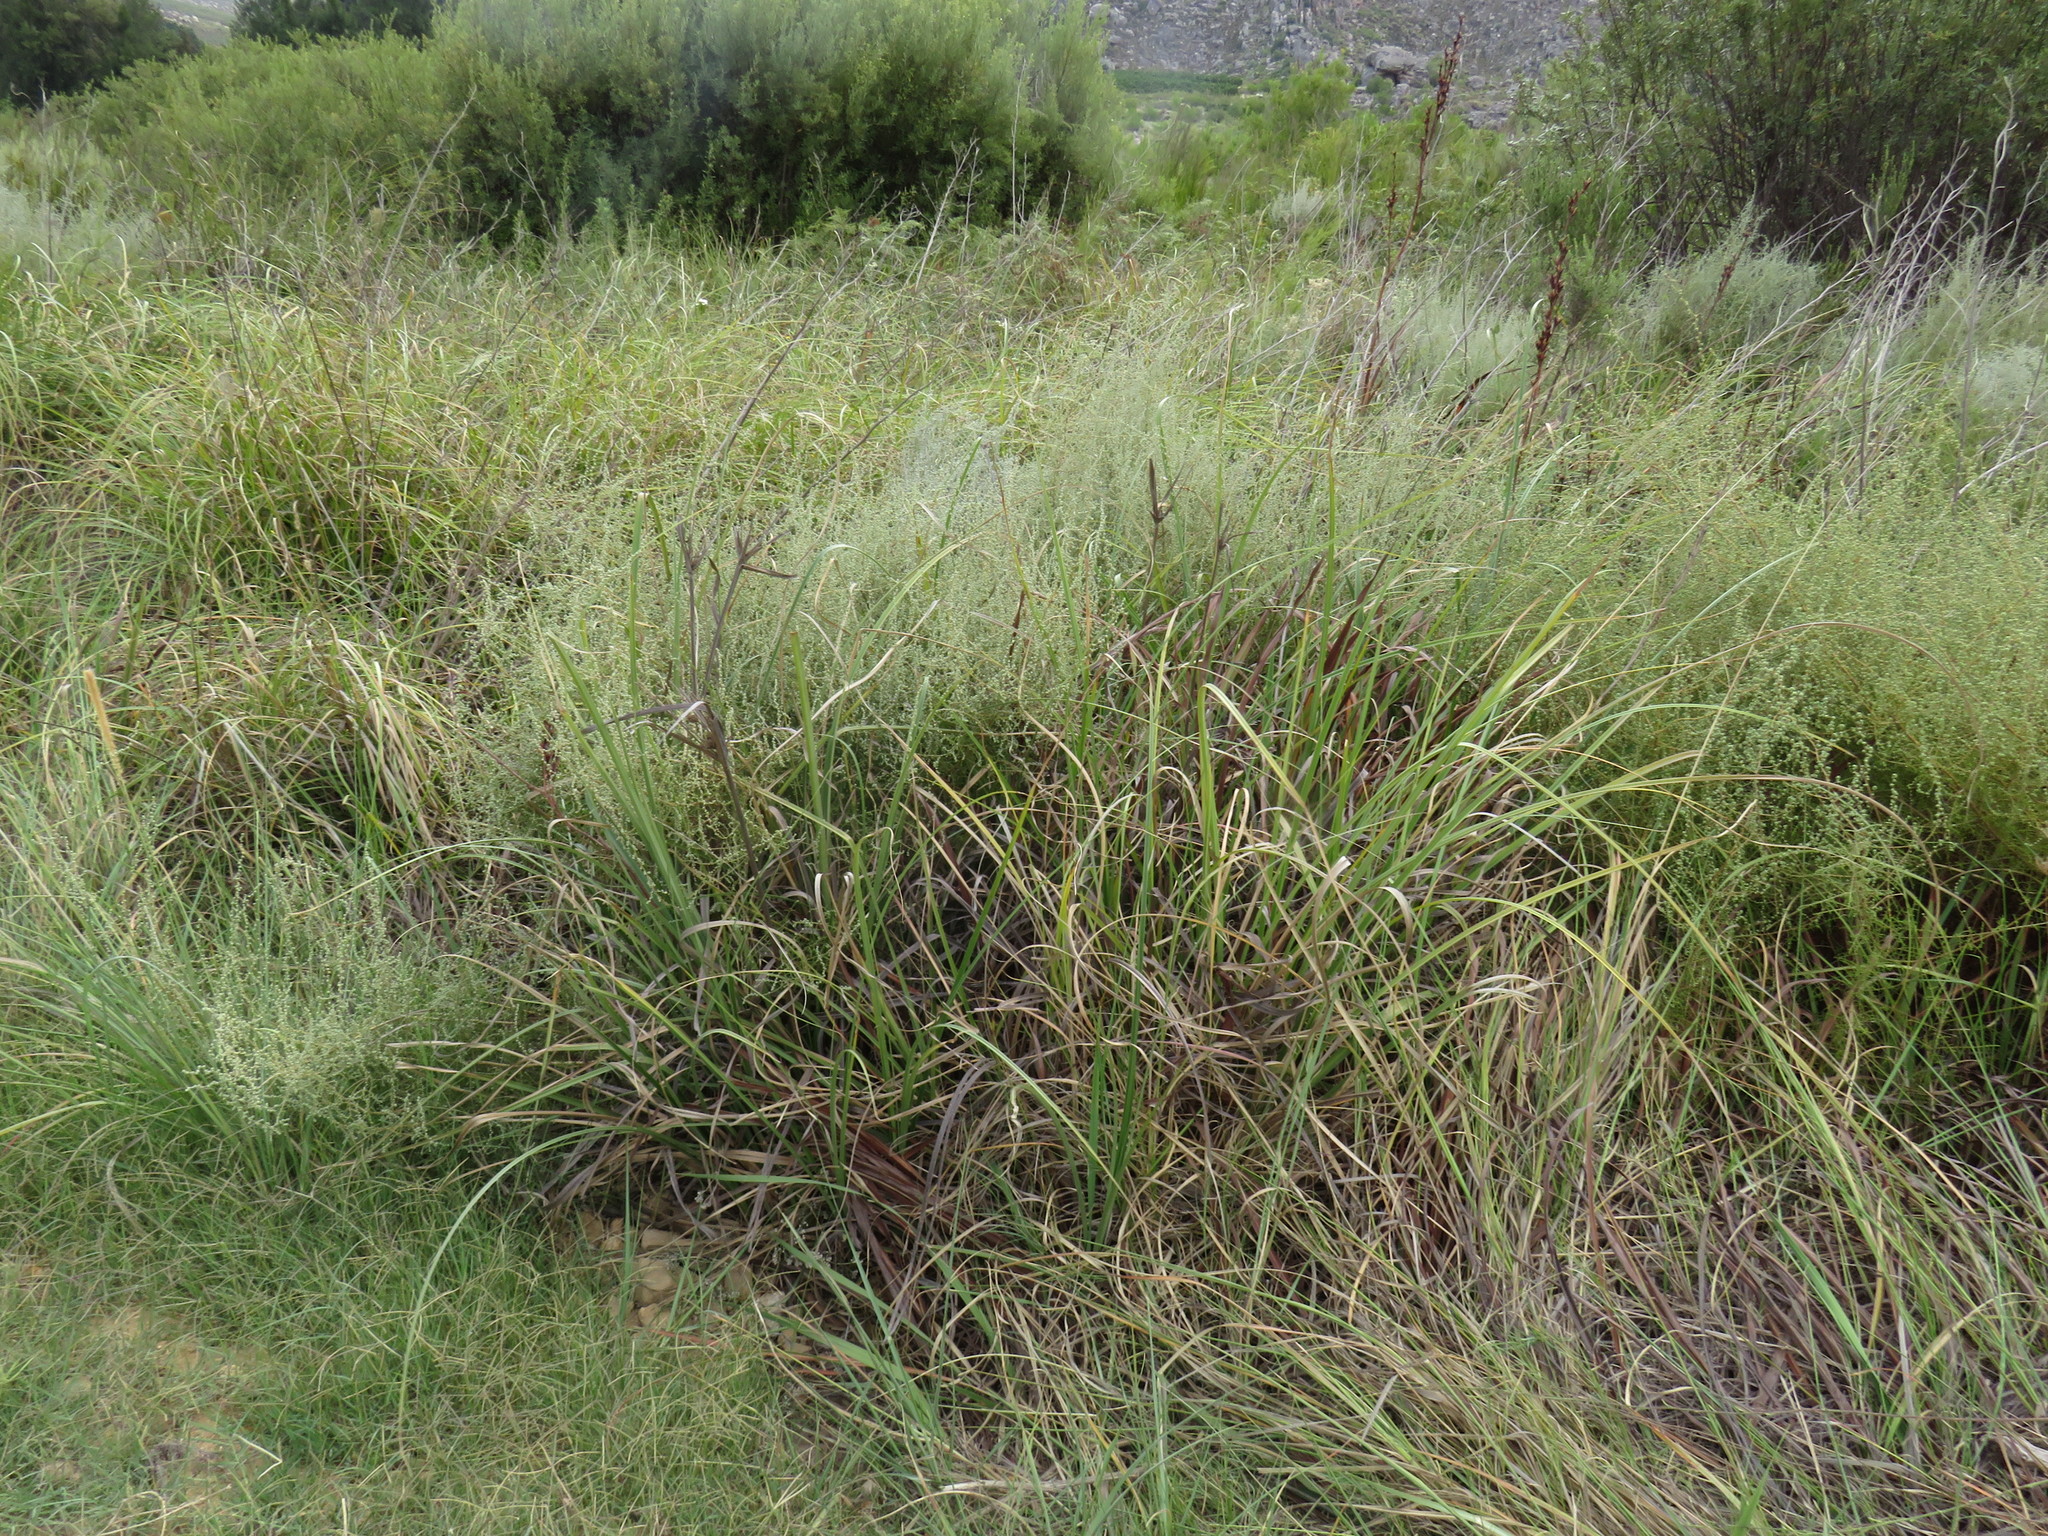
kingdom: Plantae
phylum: Tracheophyta
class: Liliopsida
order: Poales
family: Cyperaceae
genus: Cyperus
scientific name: Cyperus thunbergii
